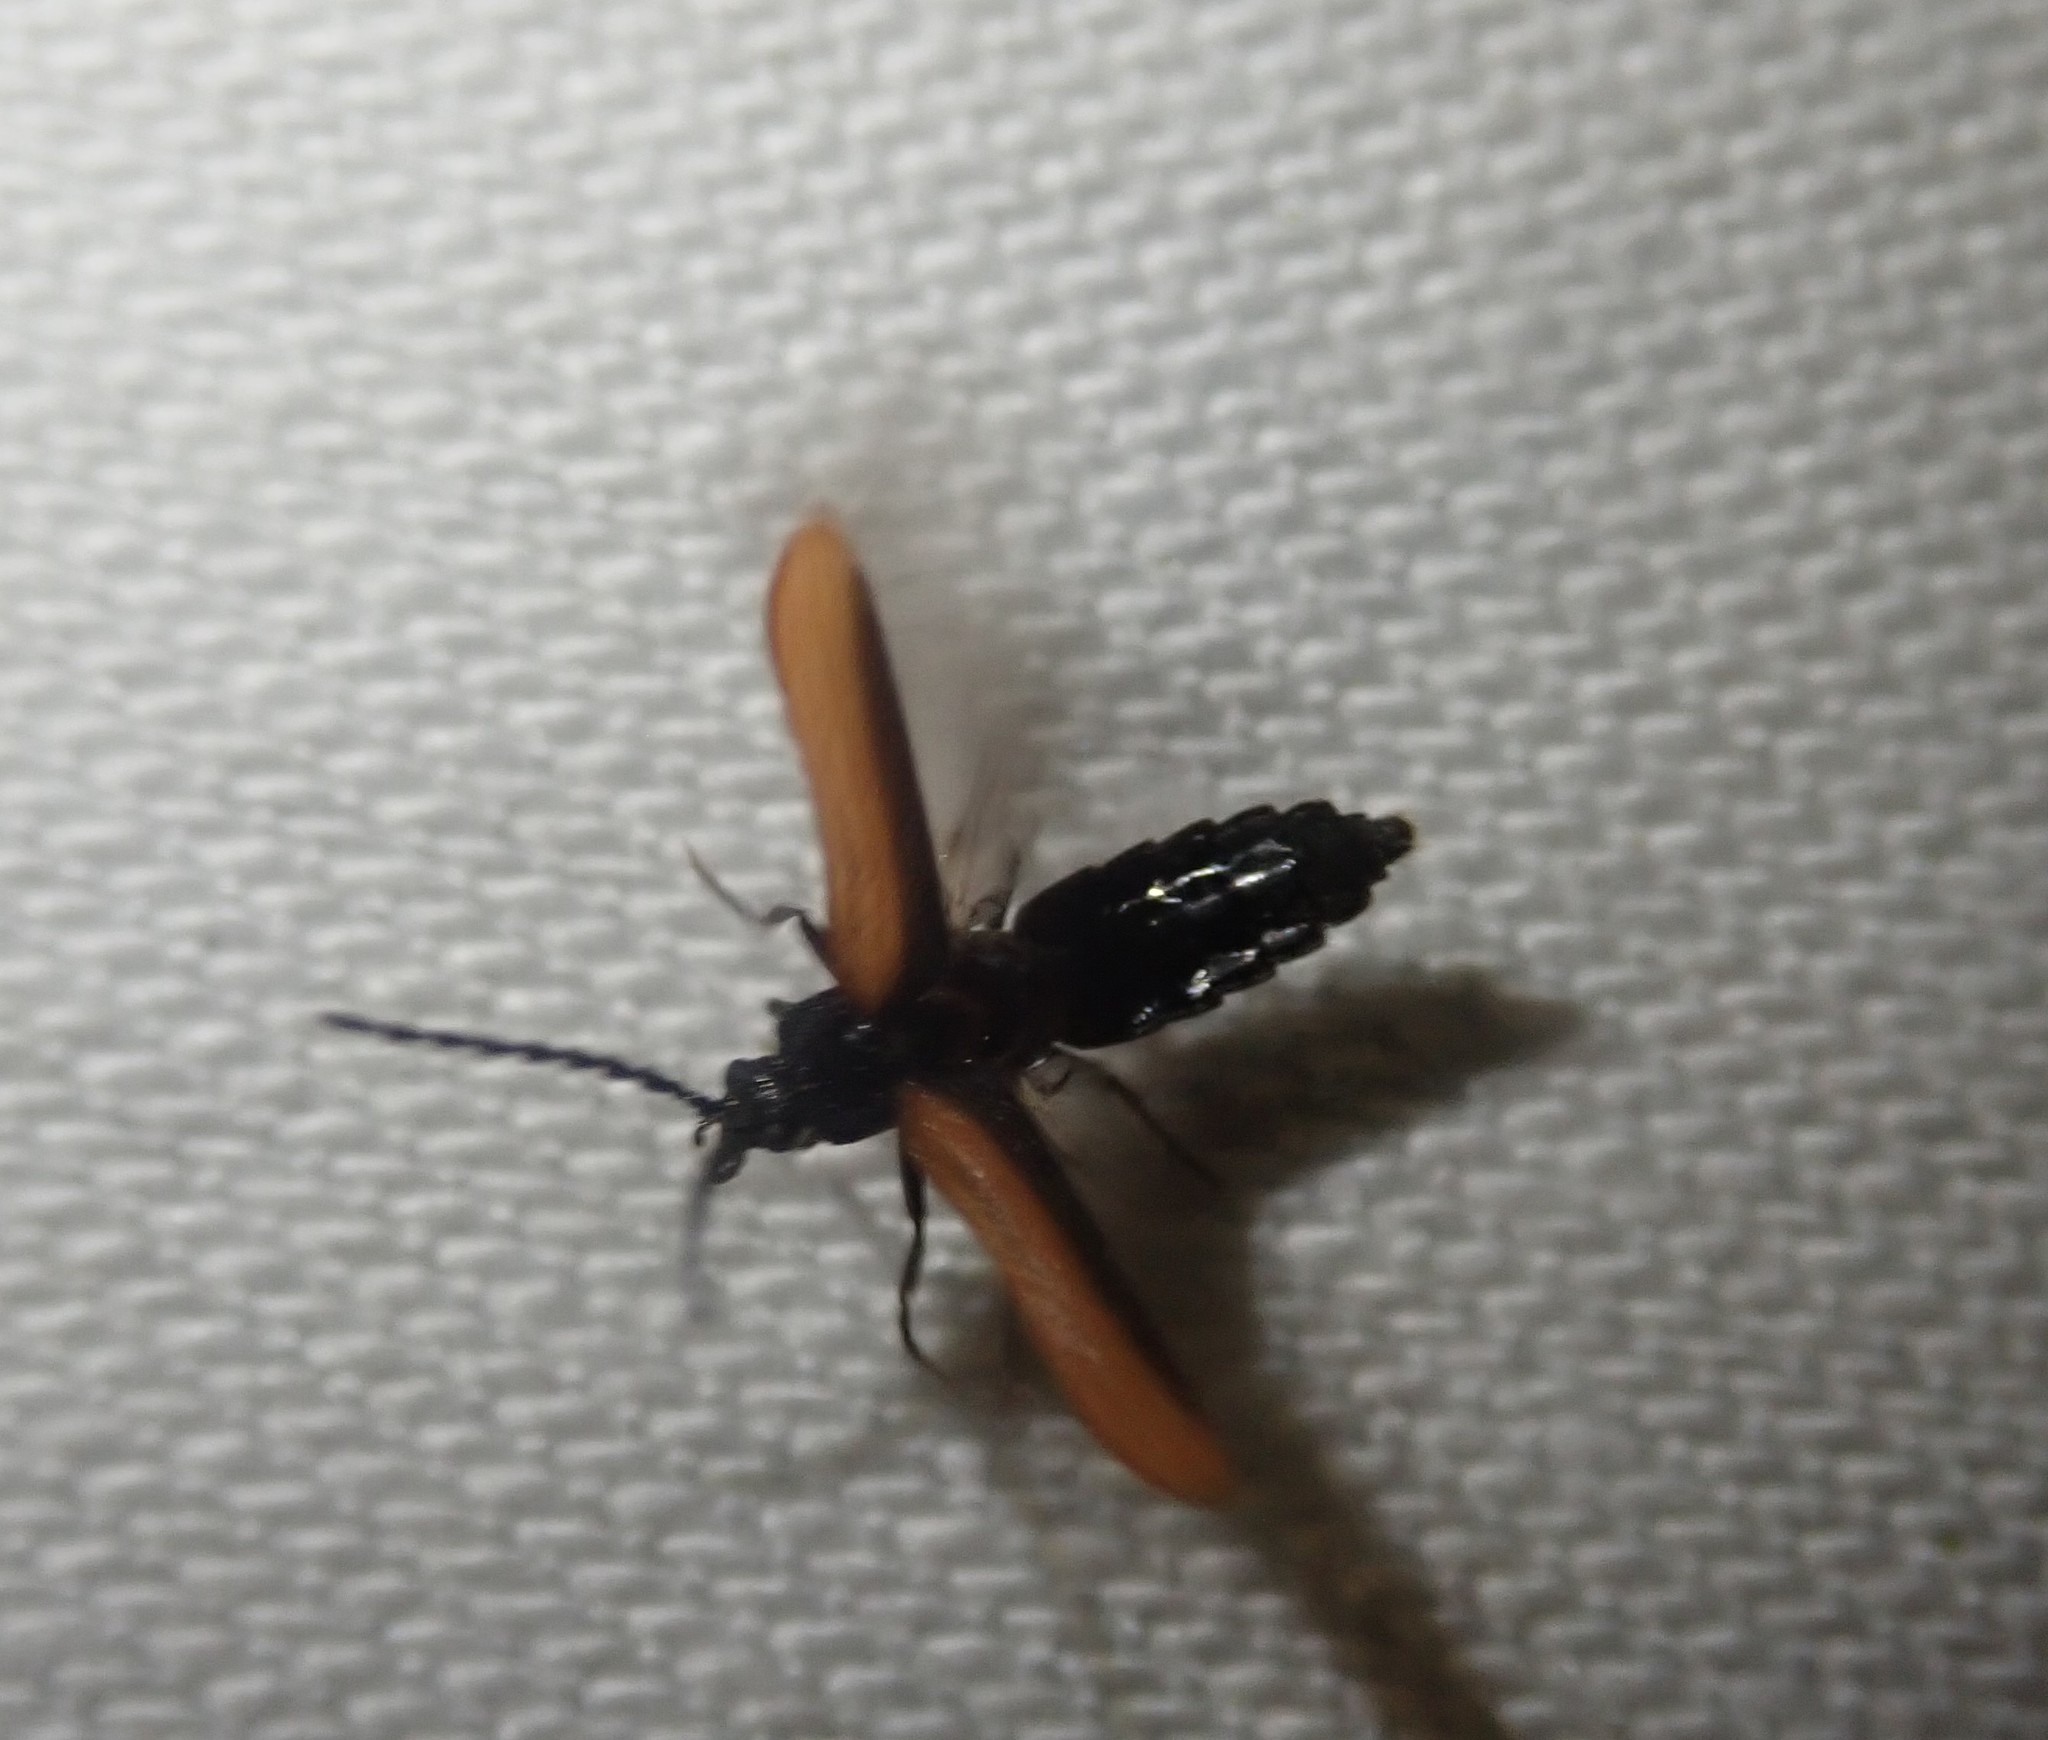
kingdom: Animalia
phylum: Arthropoda
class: Insecta
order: Coleoptera
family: Omalisidae
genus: Omalisus
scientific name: Omalisus fontisbellaquei
